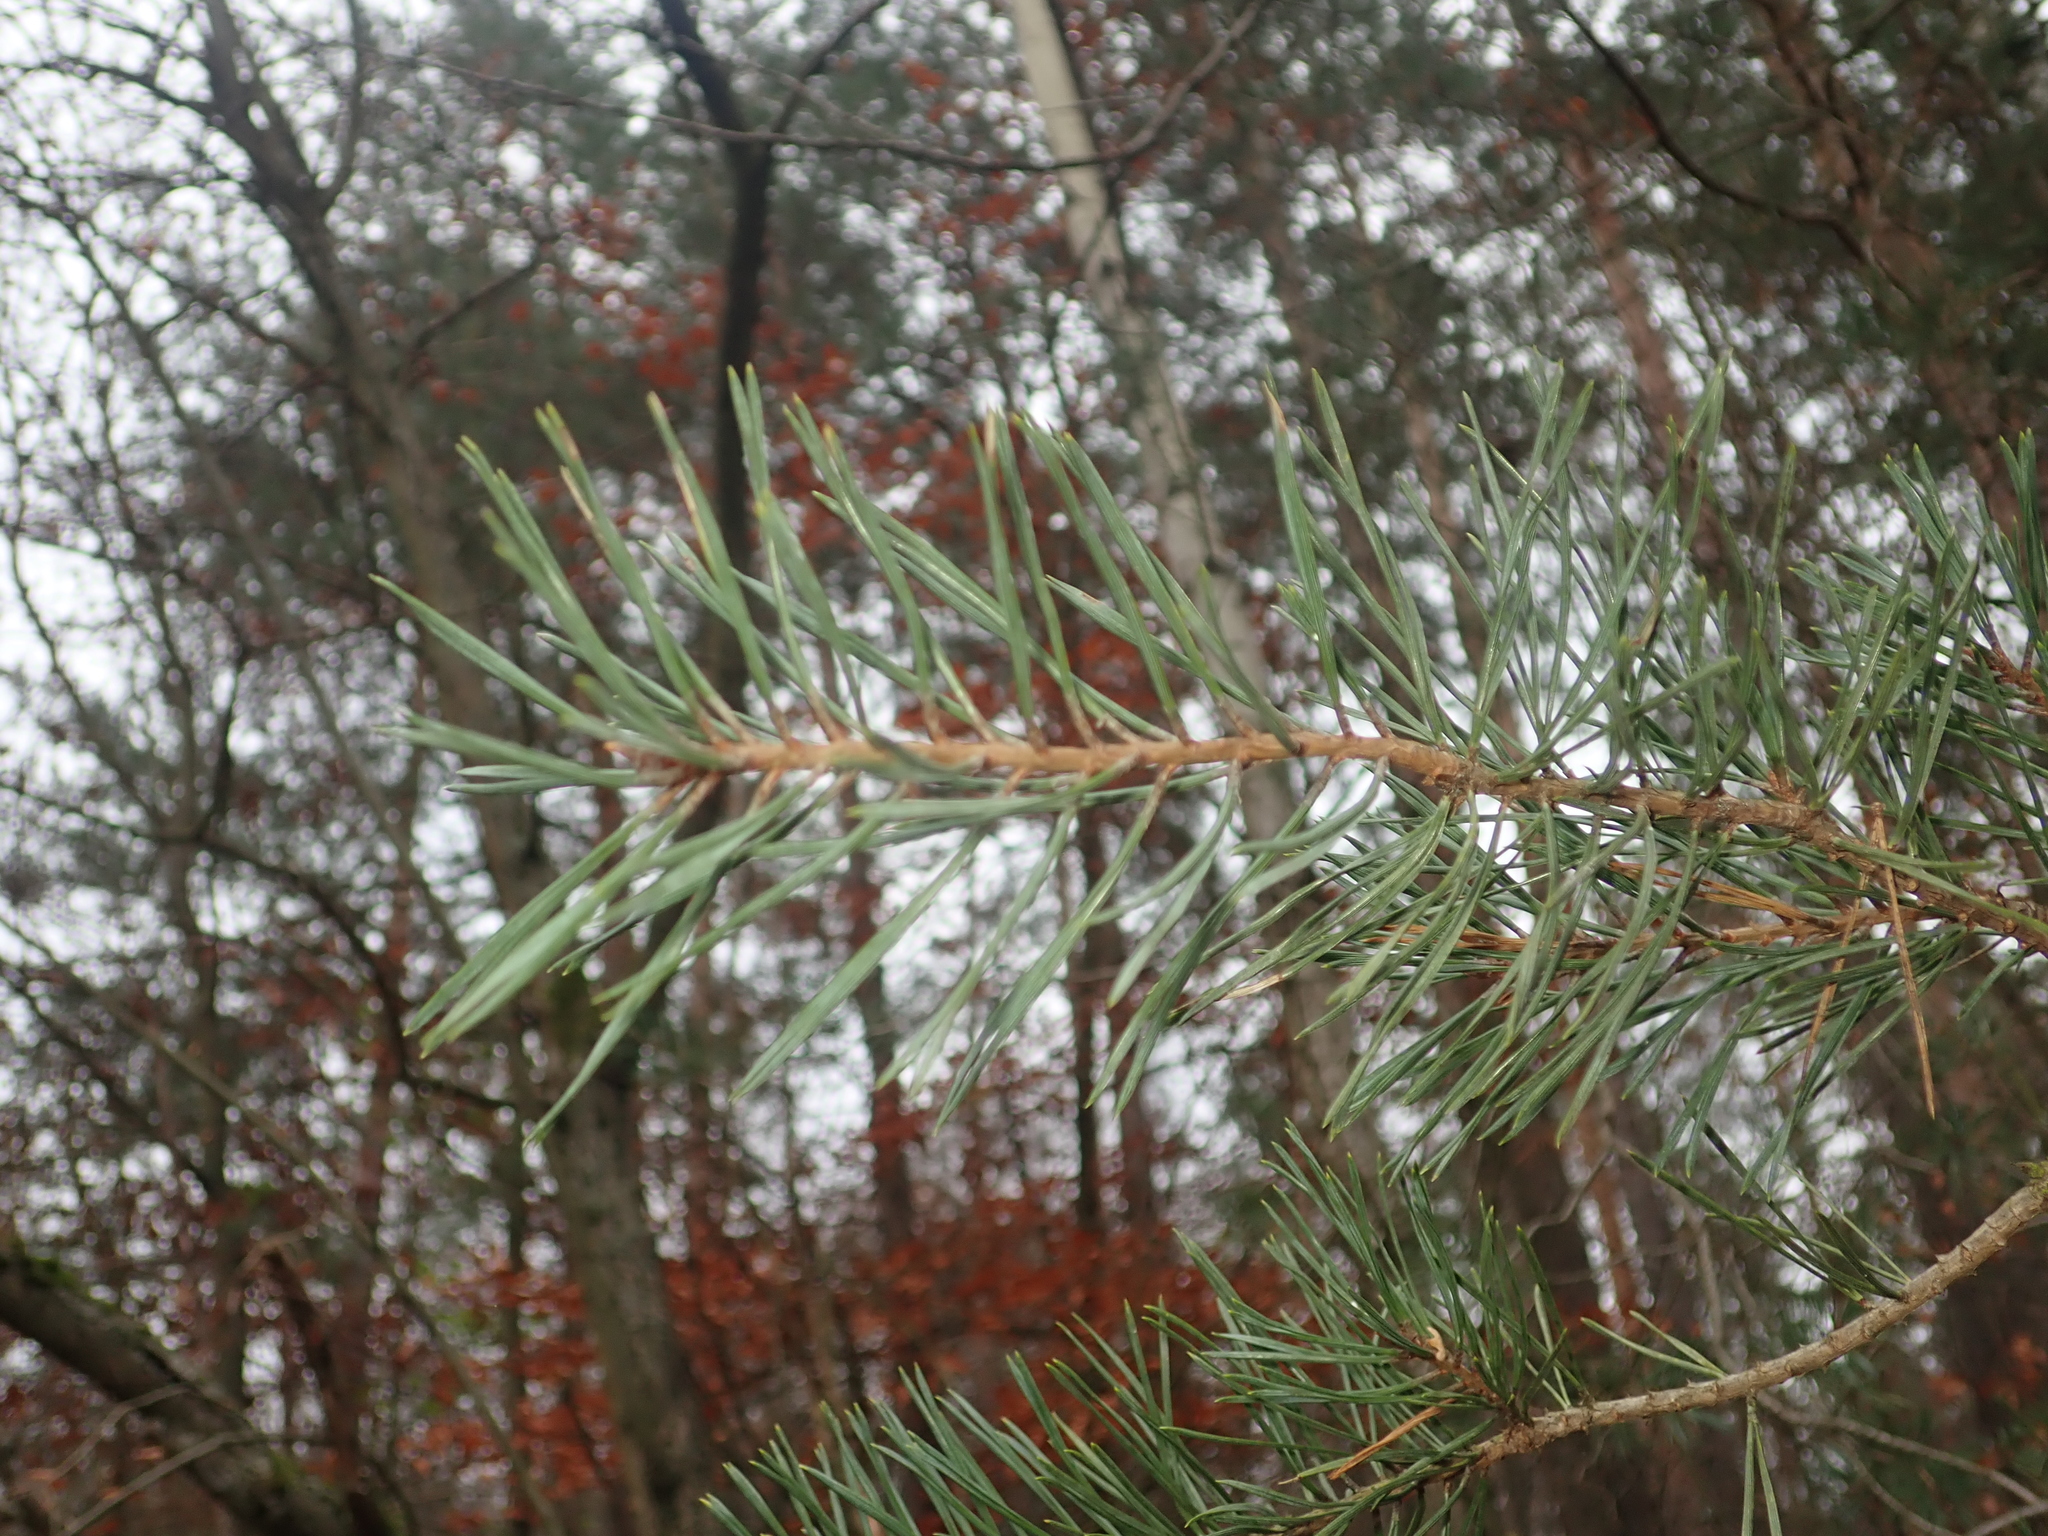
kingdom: Plantae
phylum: Tracheophyta
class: Pinopsida
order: Pinales
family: Pinaceae
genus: Pinus
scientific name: Pinus sylvestris
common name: Scots pine
